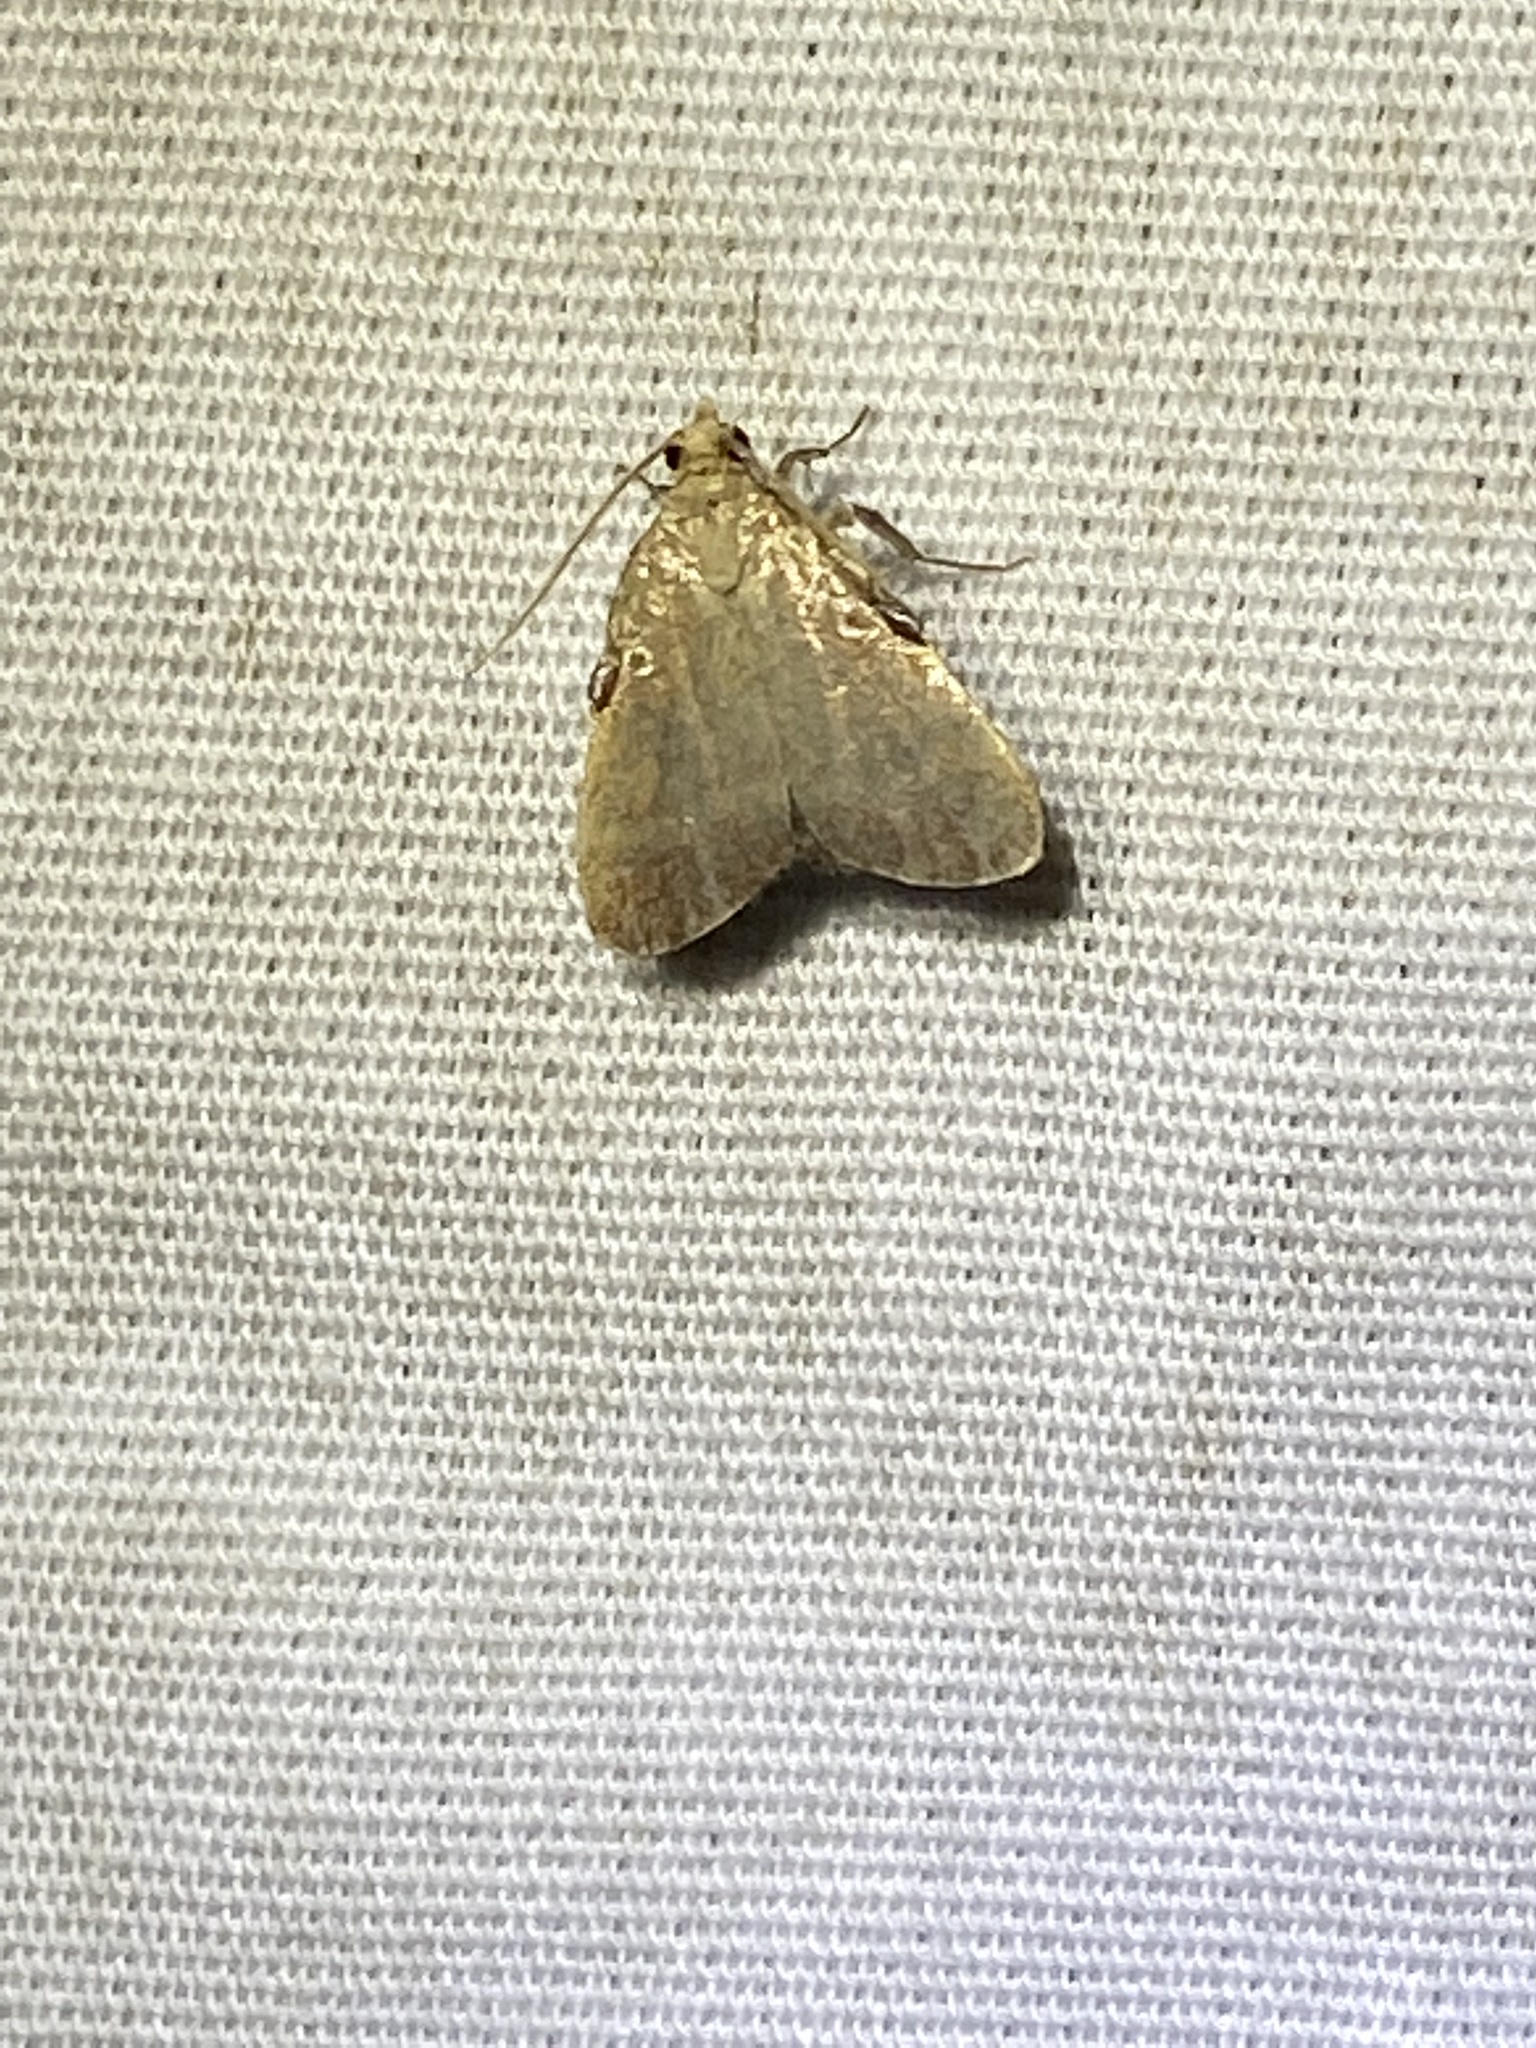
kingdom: Animalia
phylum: Arthropoda
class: Insecta
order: Lepidoptera
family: Pyralidae
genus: Condylolomia
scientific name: Condylolomia participialis
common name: Drab condylolomia moth
